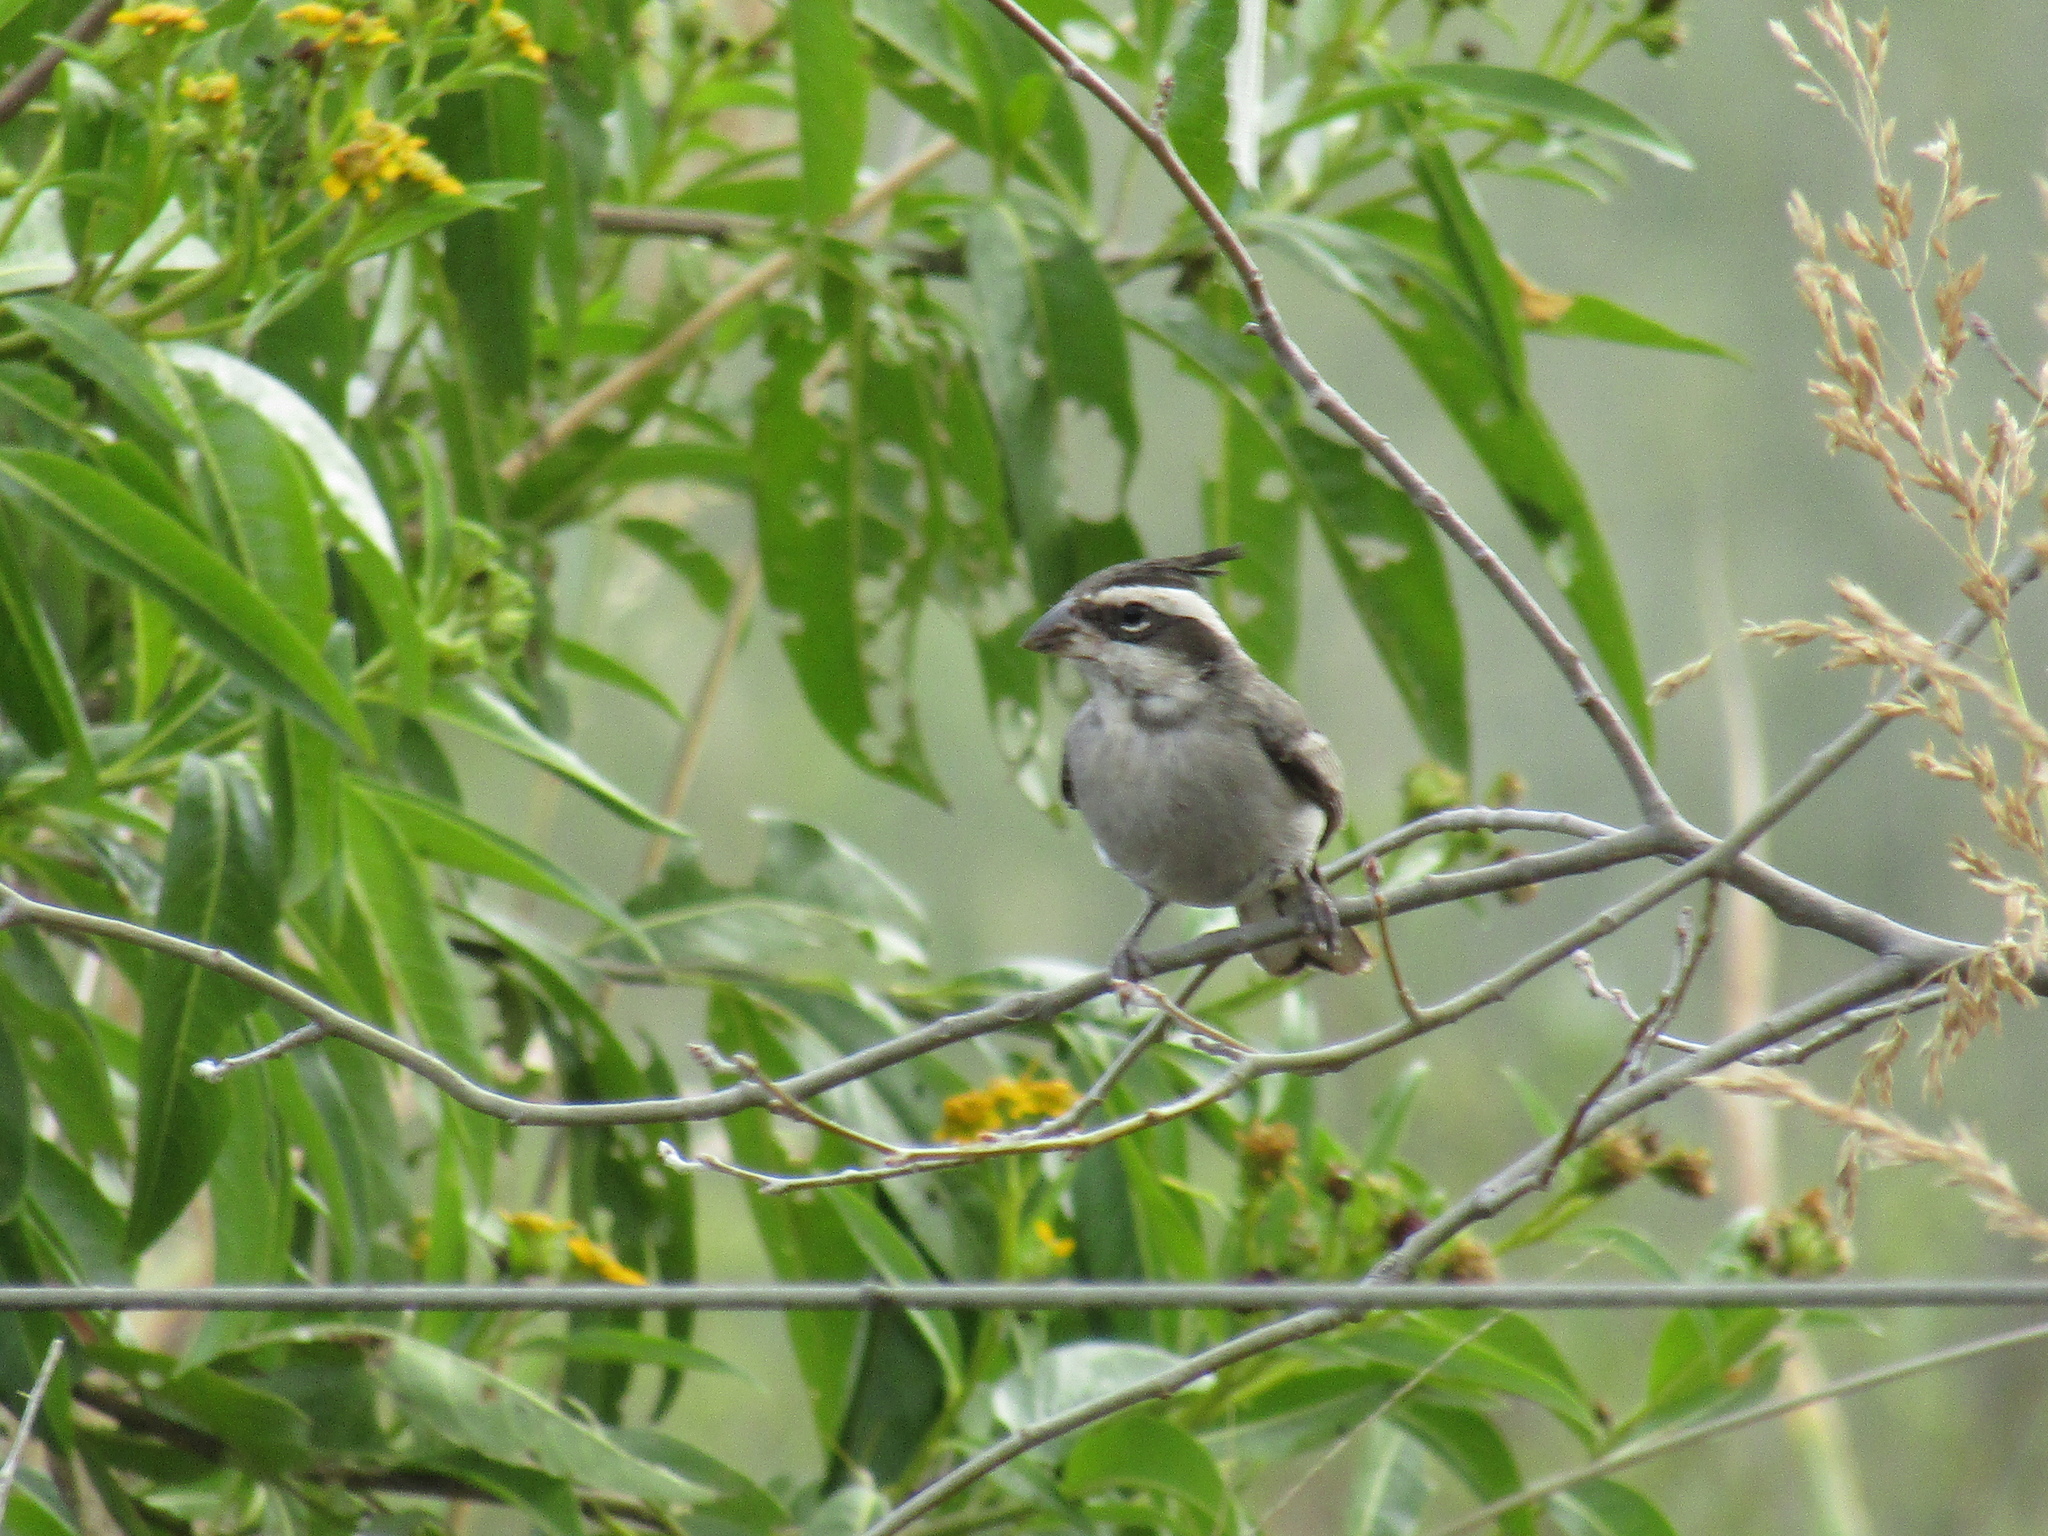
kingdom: Animalia
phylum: Chordata
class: Aves
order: Passeriformes
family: Thraupidae
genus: Lophospingus
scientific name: Lophospingus pusillus
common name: Black-crested finch
